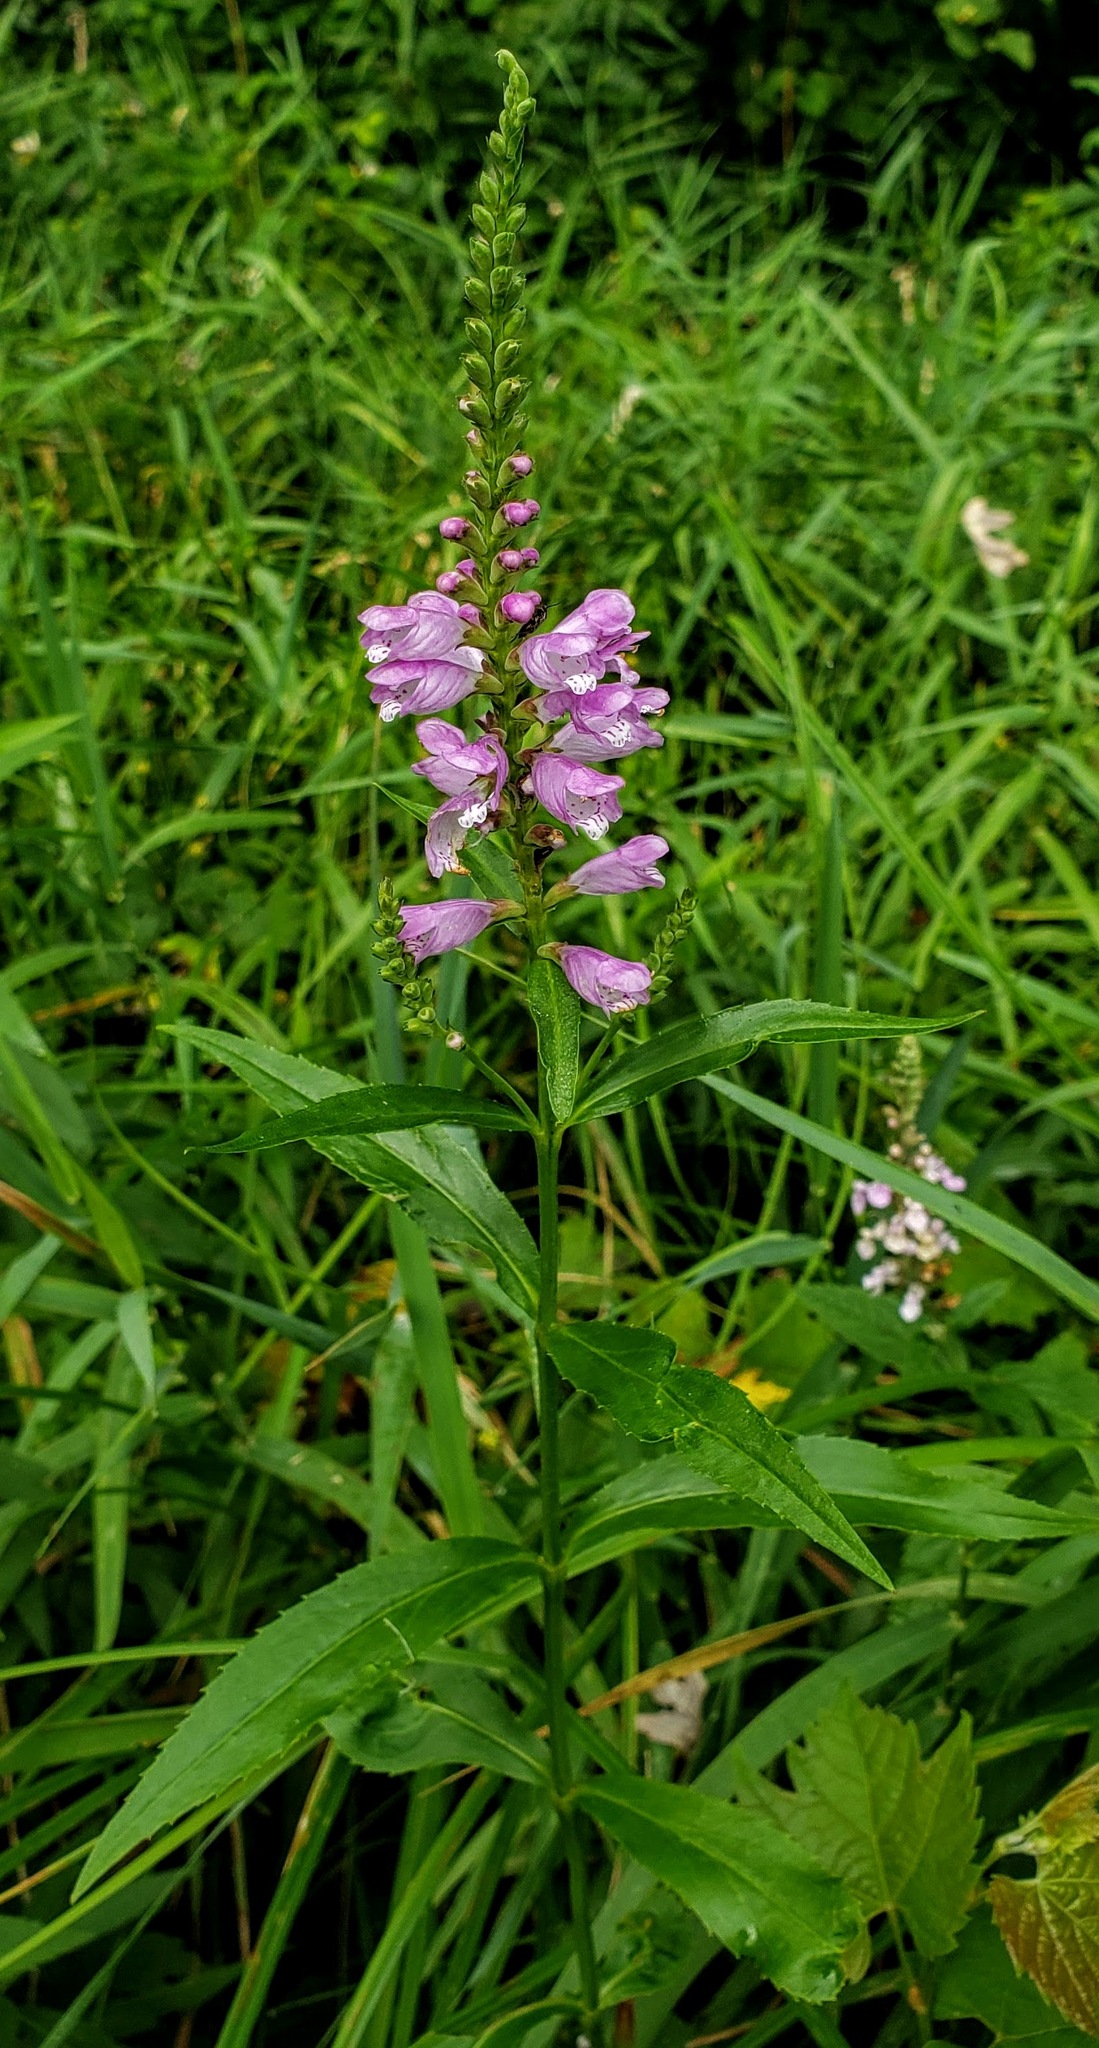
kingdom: Plantae
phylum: Tracheophyta
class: Magnoliopsida
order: Lamiales
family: Lamiaceae
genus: Physostegia
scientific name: Physostegia virginiana
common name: Obedient-plant
